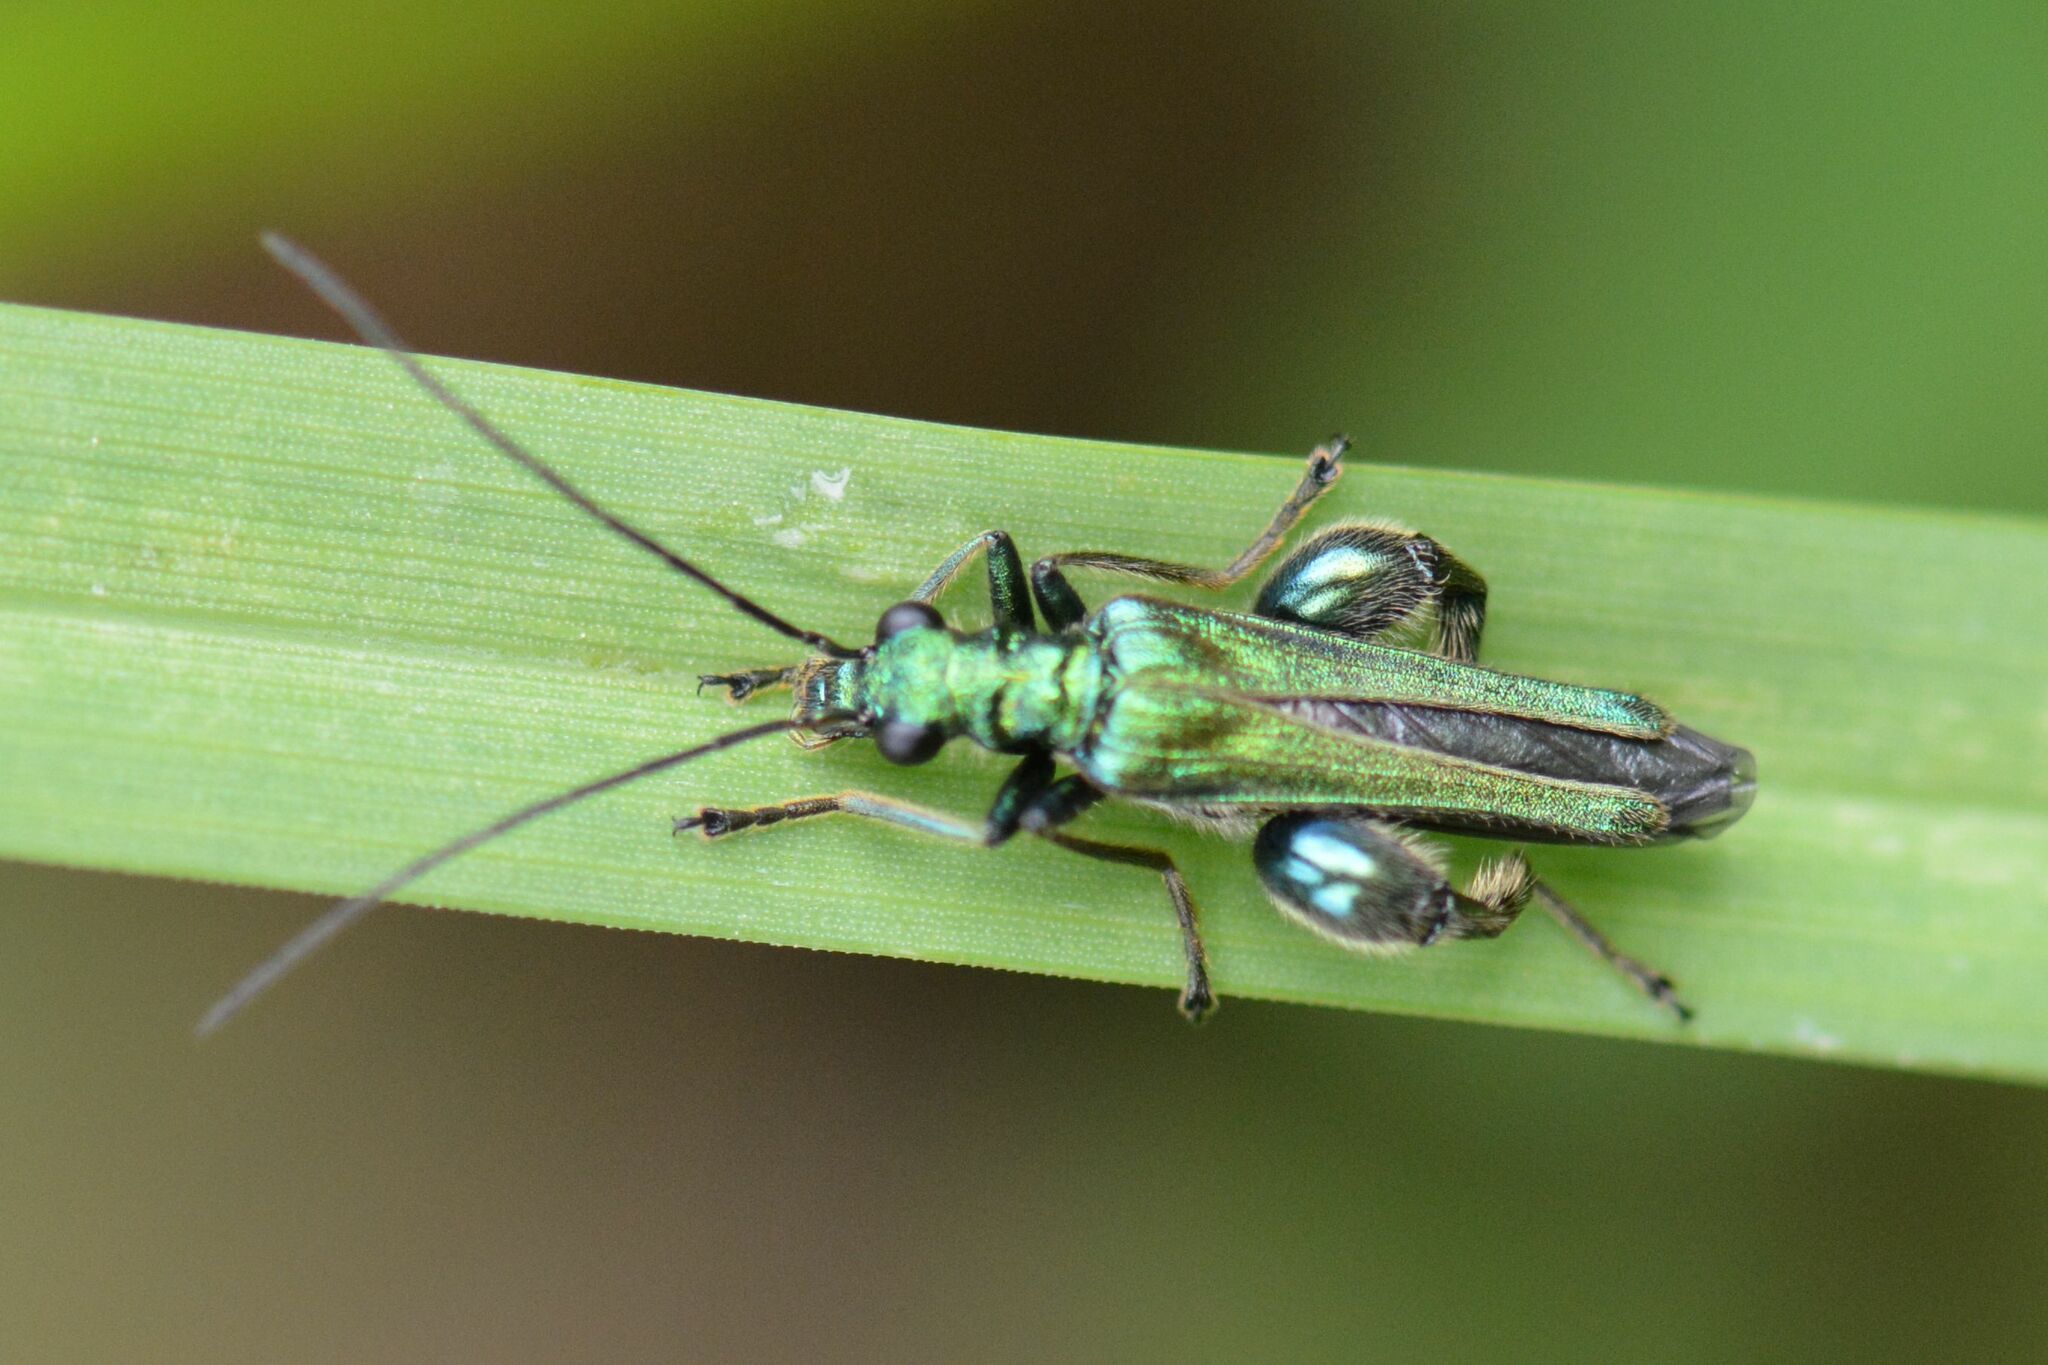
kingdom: Animalia
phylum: Arthropoda
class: Insecta
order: Coleoptera
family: Oedemeridae
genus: Oedemera
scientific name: Oedemera nobilis
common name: Swollen-thighed beetle
